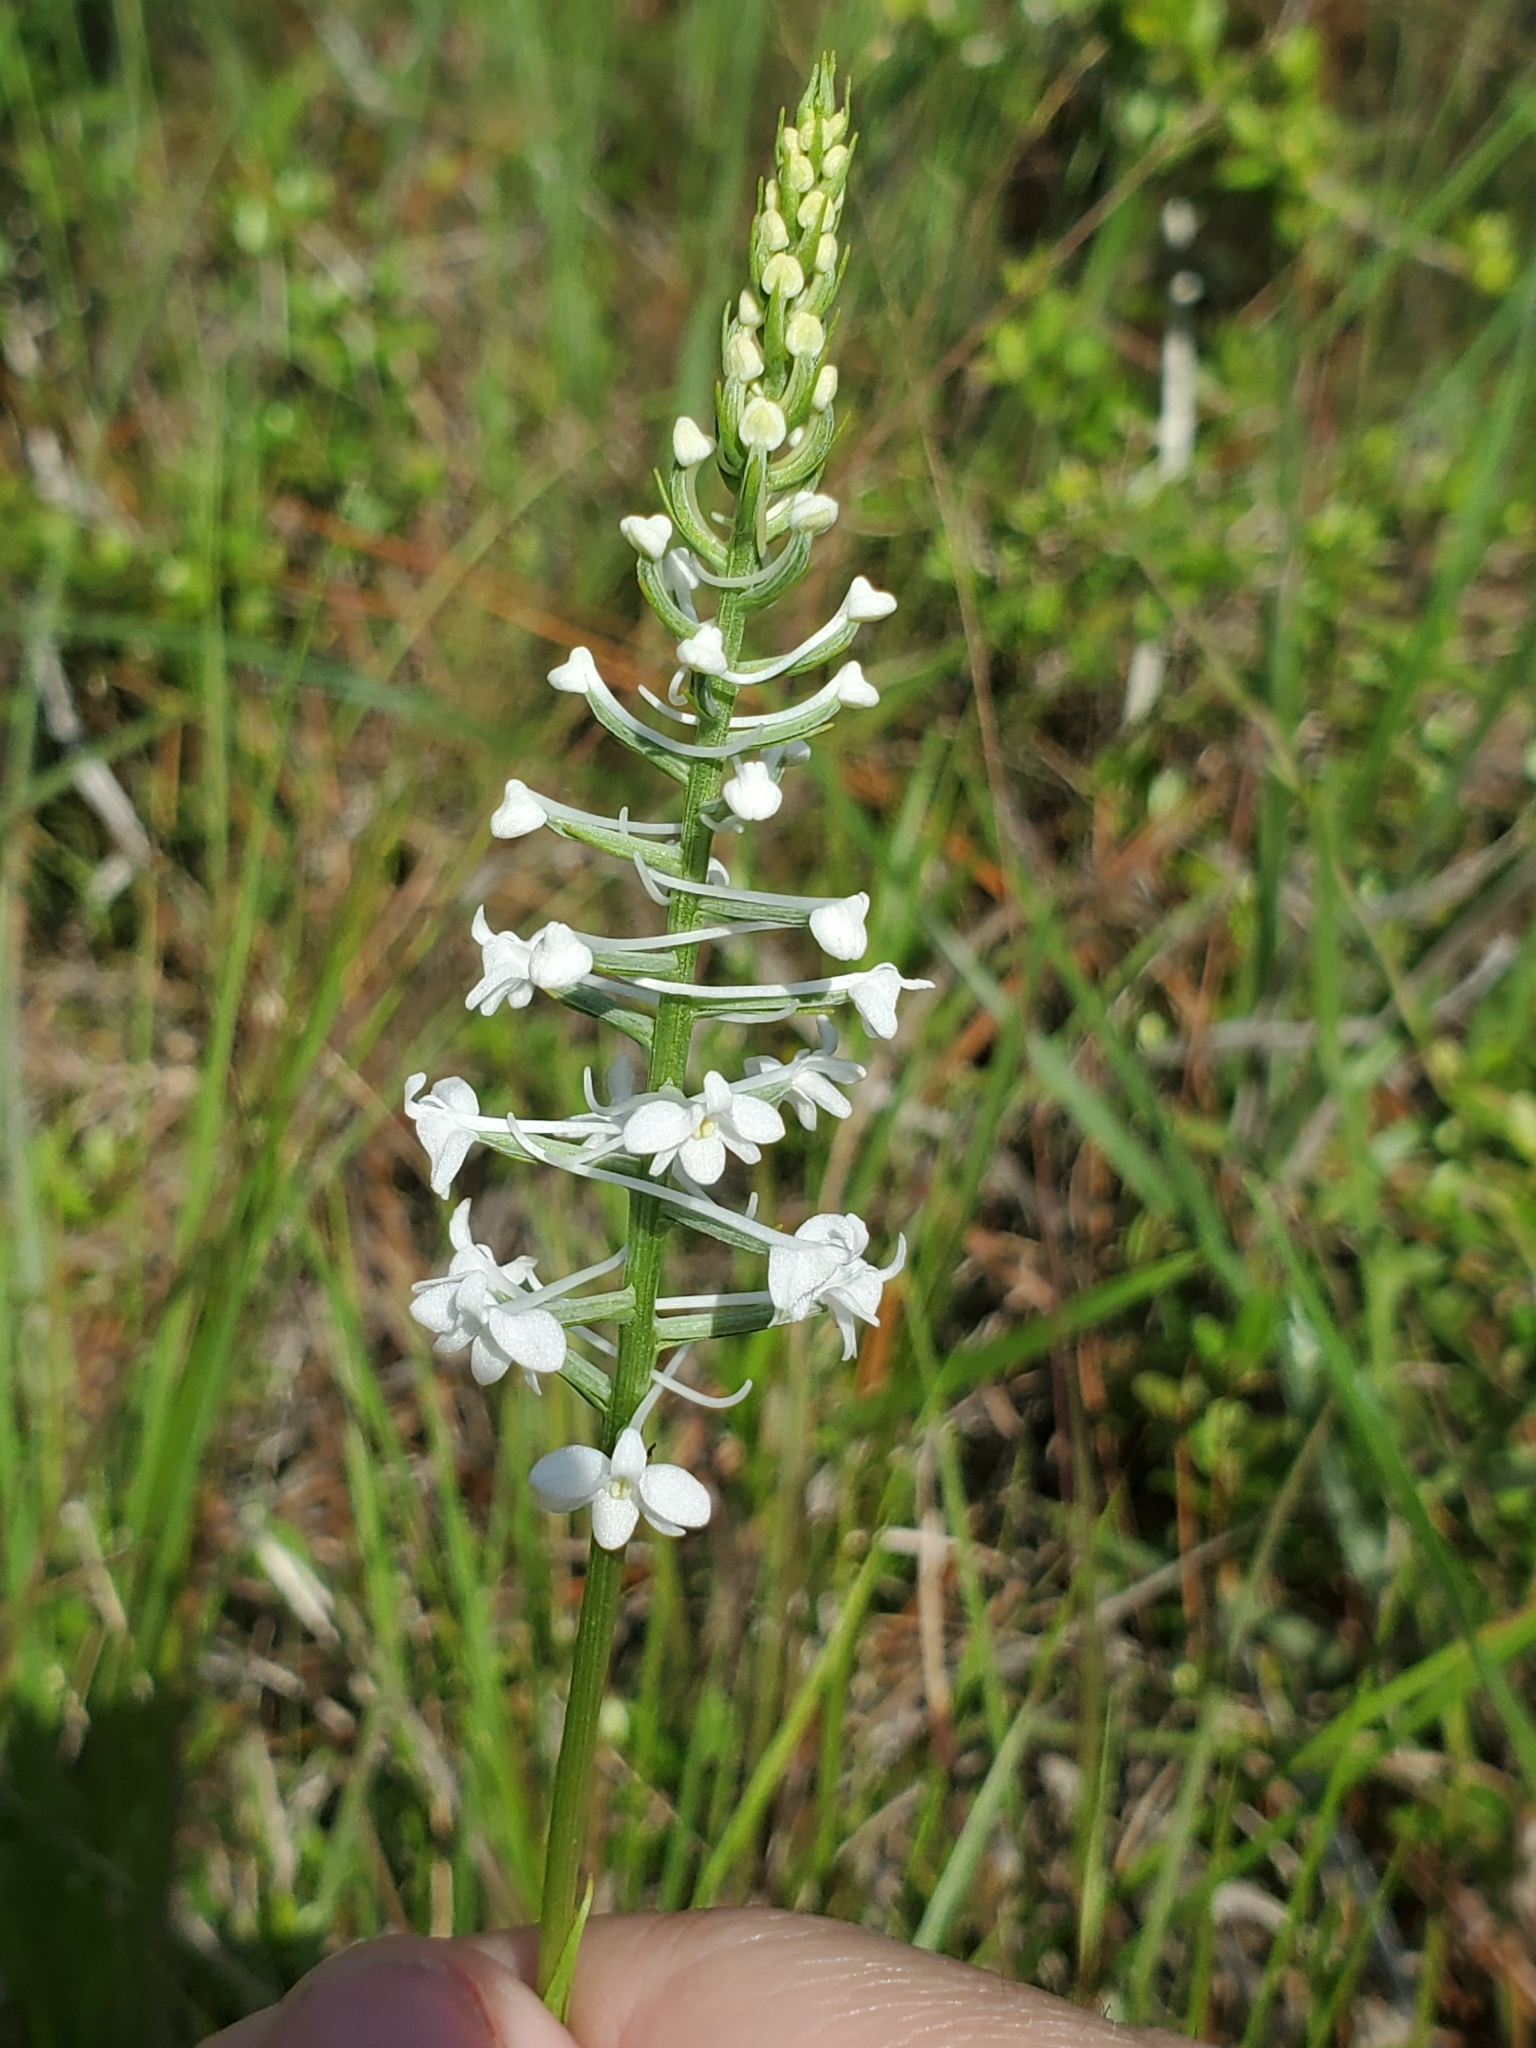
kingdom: Plantae
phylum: Tracheophyta
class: Liliopsida
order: Asparagales
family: Orchidaceae
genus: Platanthera
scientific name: Platanthera nivea
